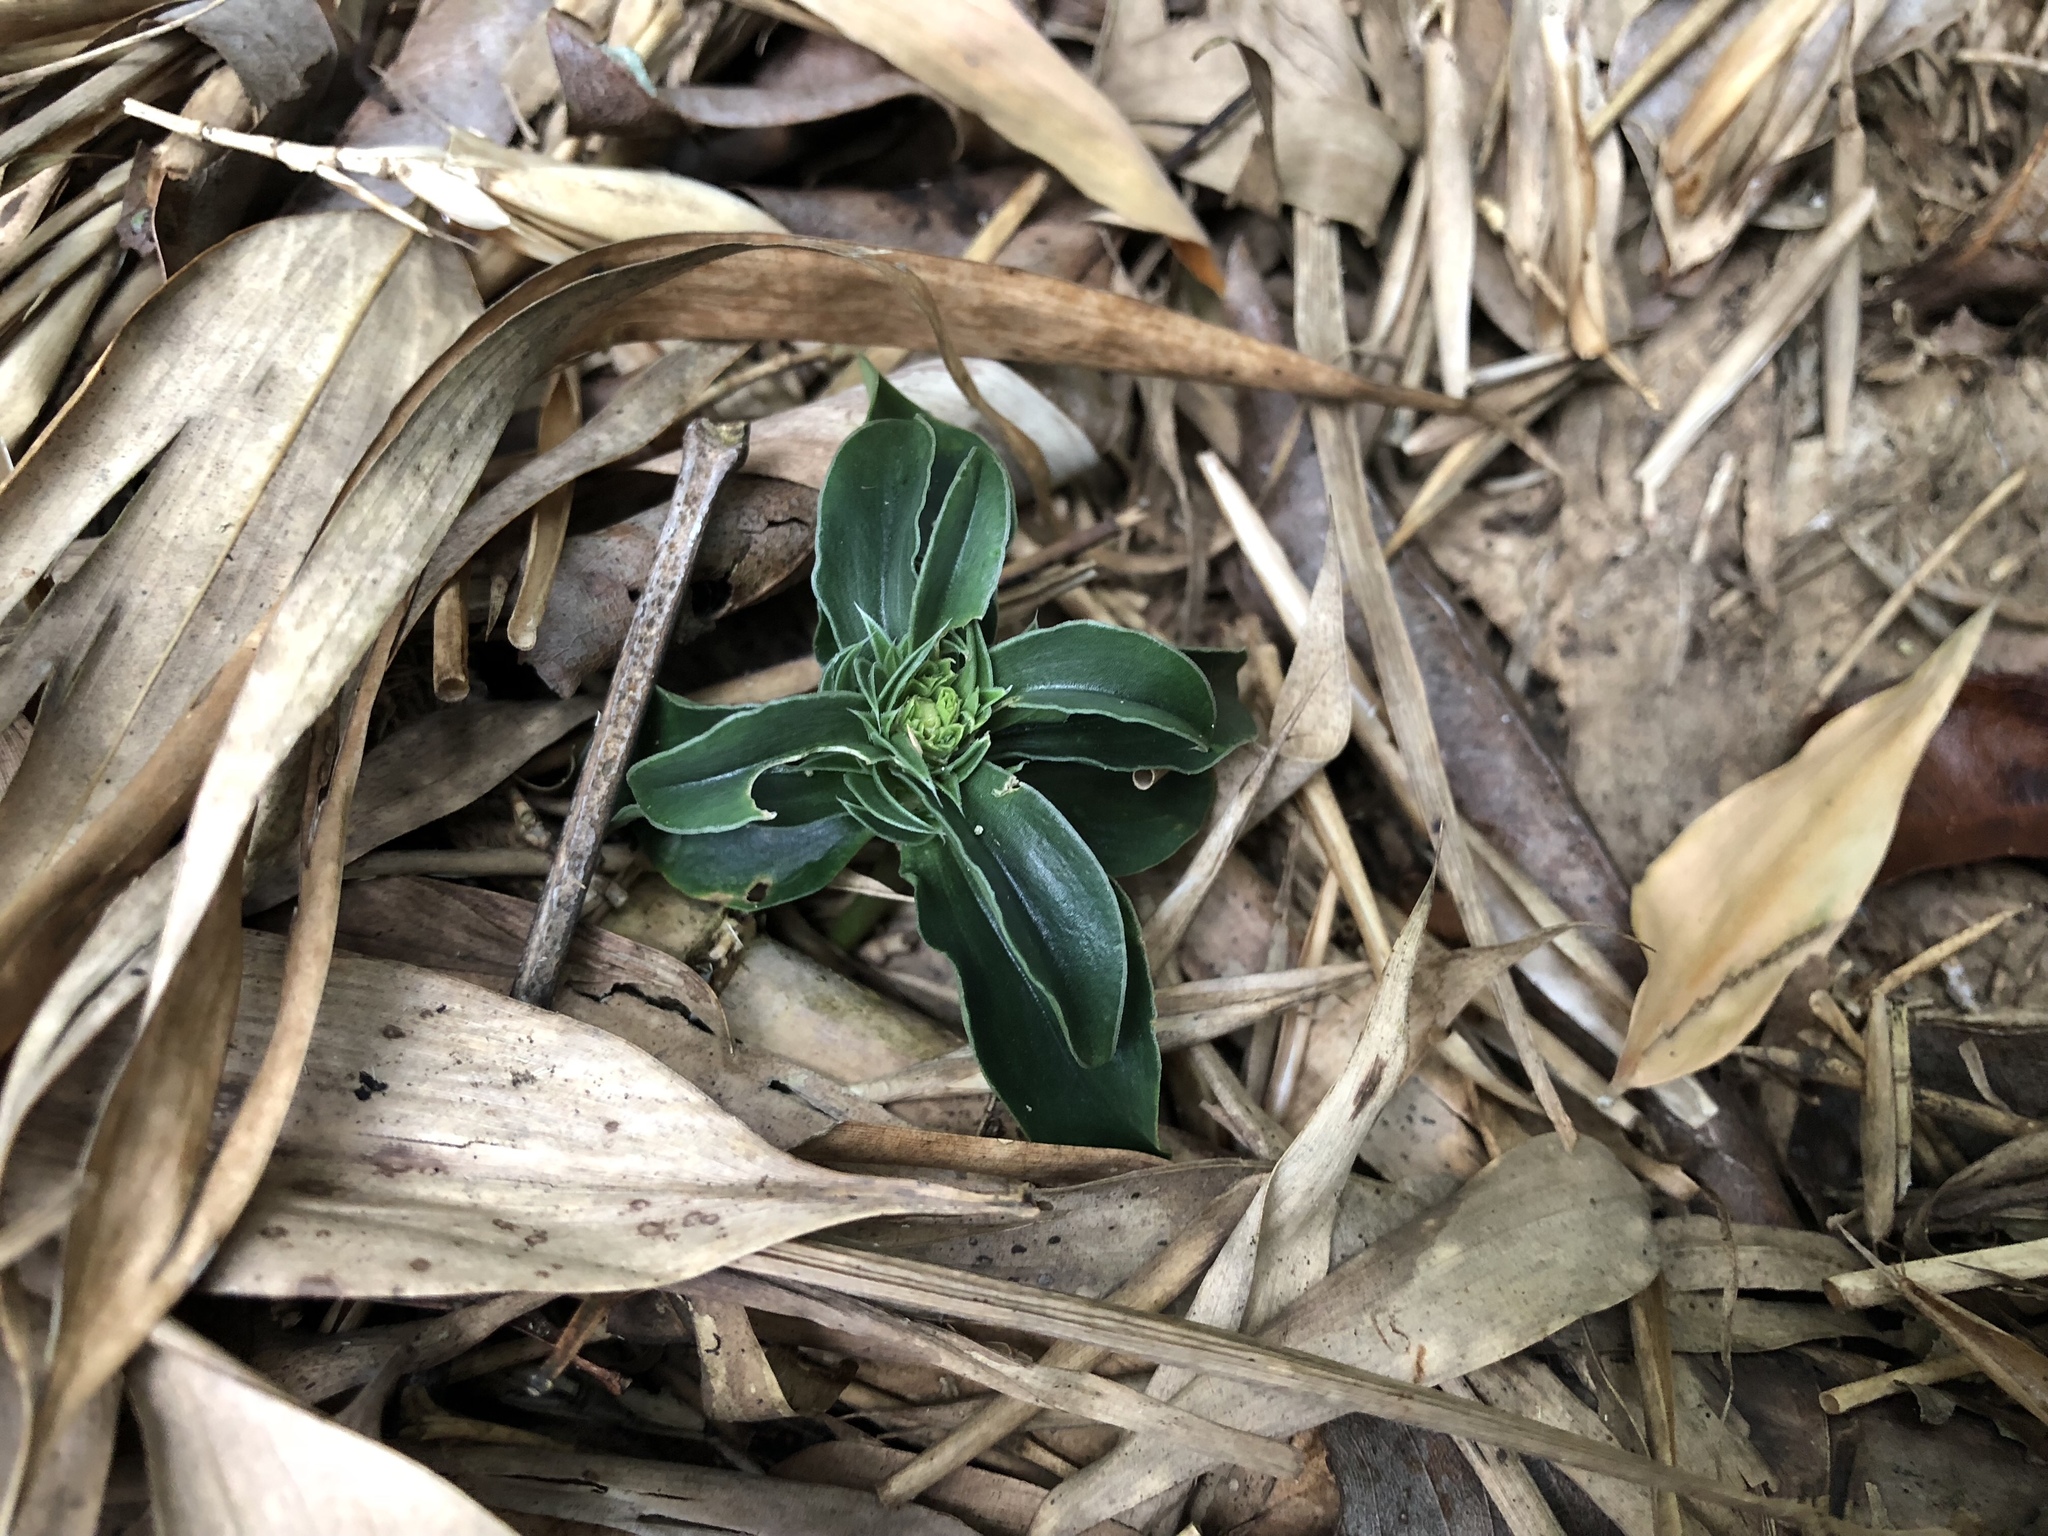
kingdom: Plantae
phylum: Tracheophyta
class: Magnoliopsida
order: Gentianales
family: Gentianaceae
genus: Gentiana
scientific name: Gentiana bambuseti
